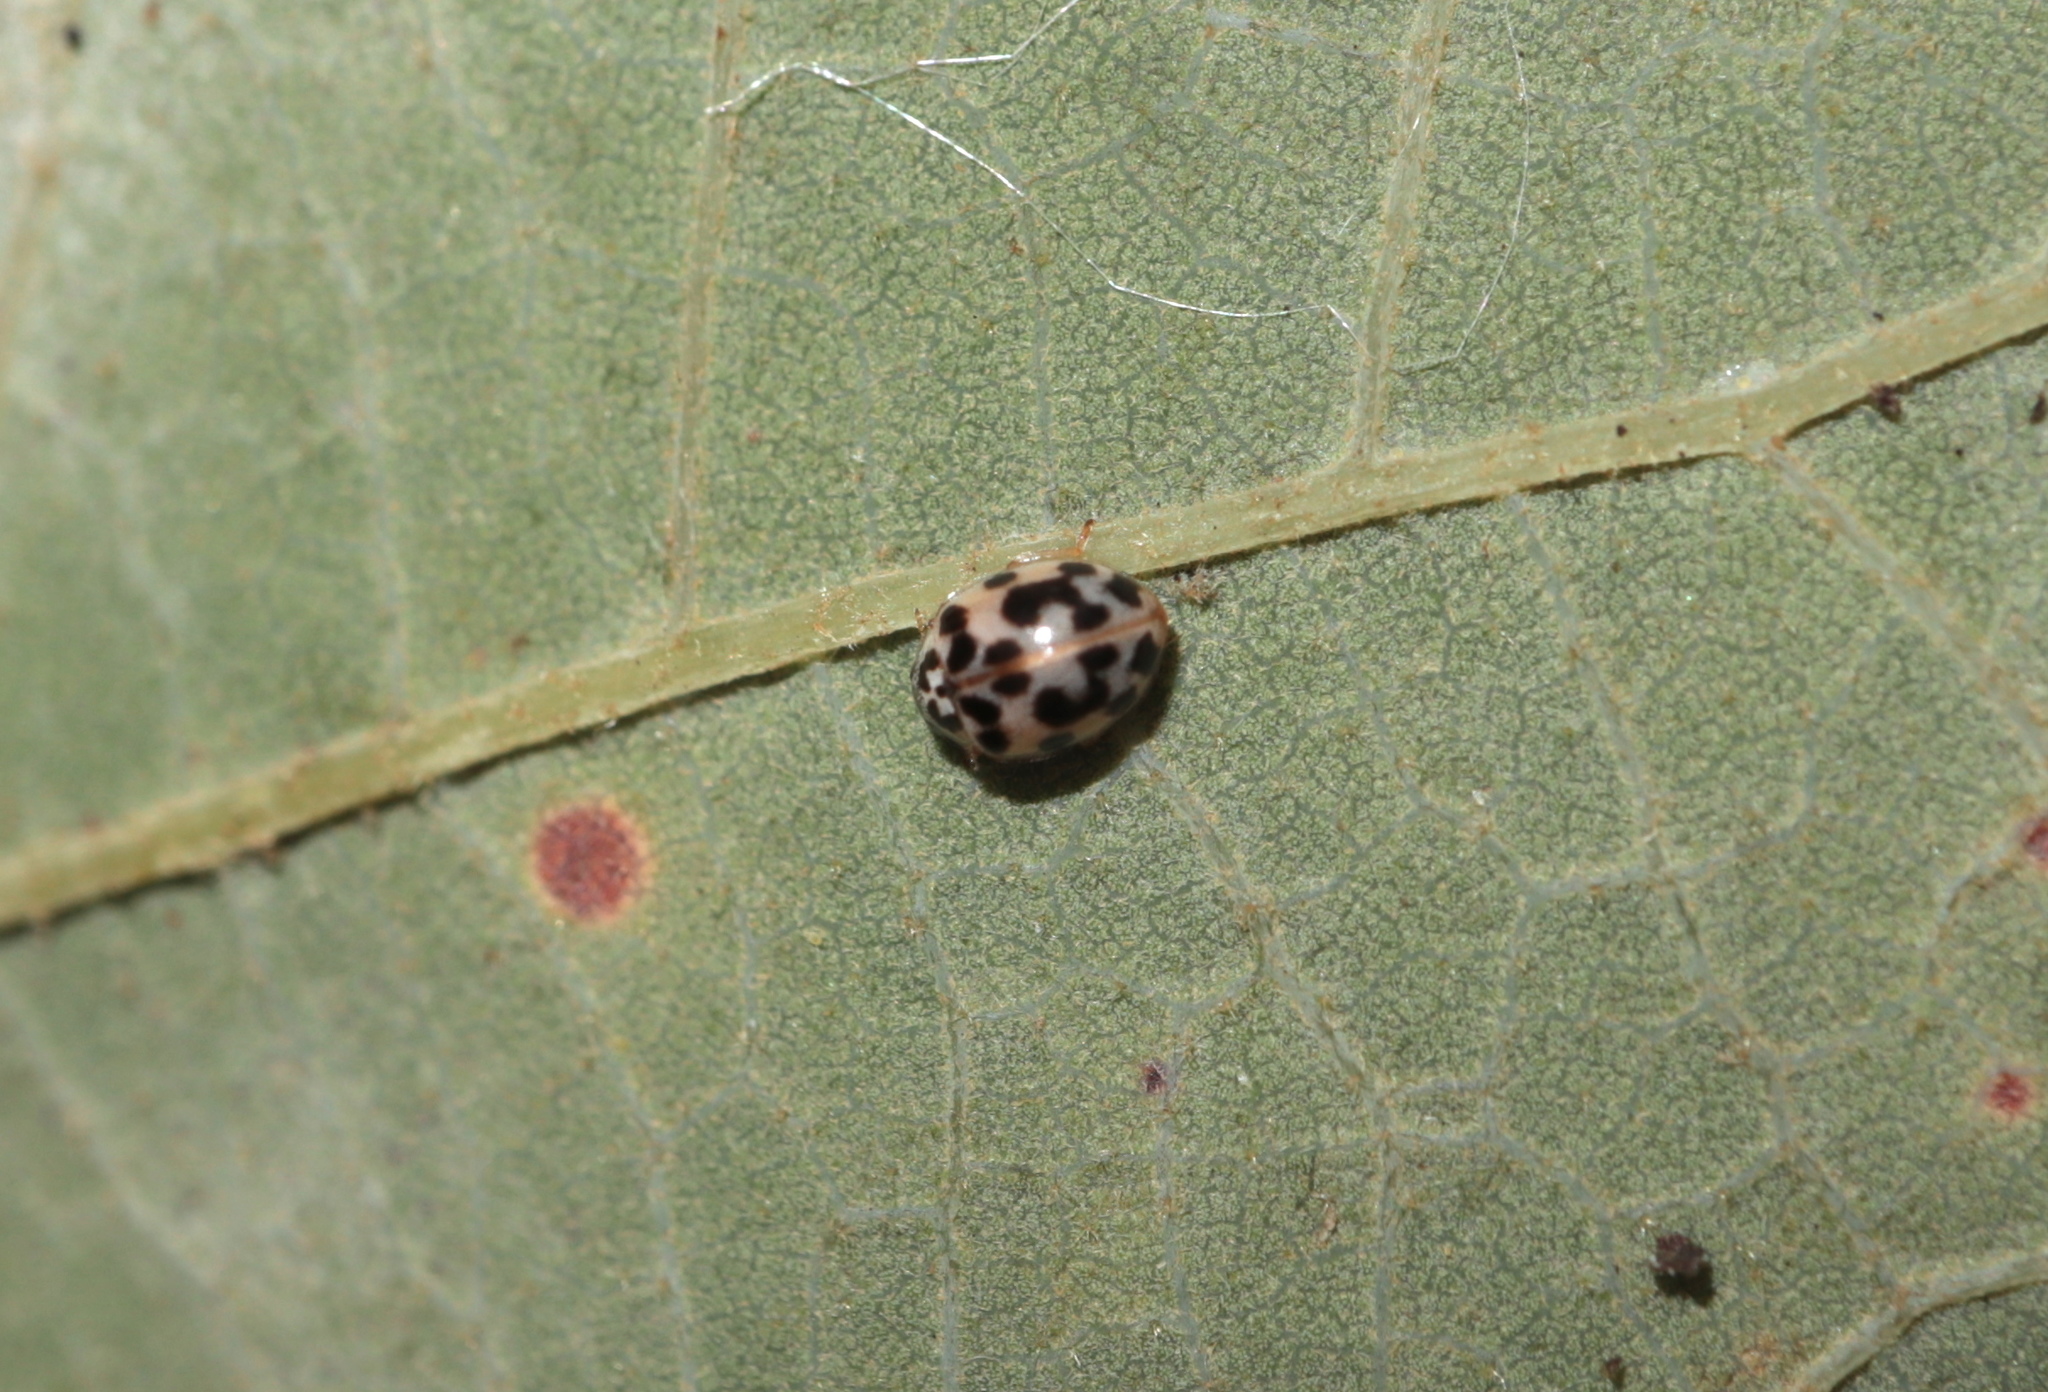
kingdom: Animalia
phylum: Arthropoda
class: Insecta
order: Coleoptera
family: Coccinellidae
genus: Psyllobora
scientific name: Psyllobora vigintimaculata
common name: Ladybird beetle
